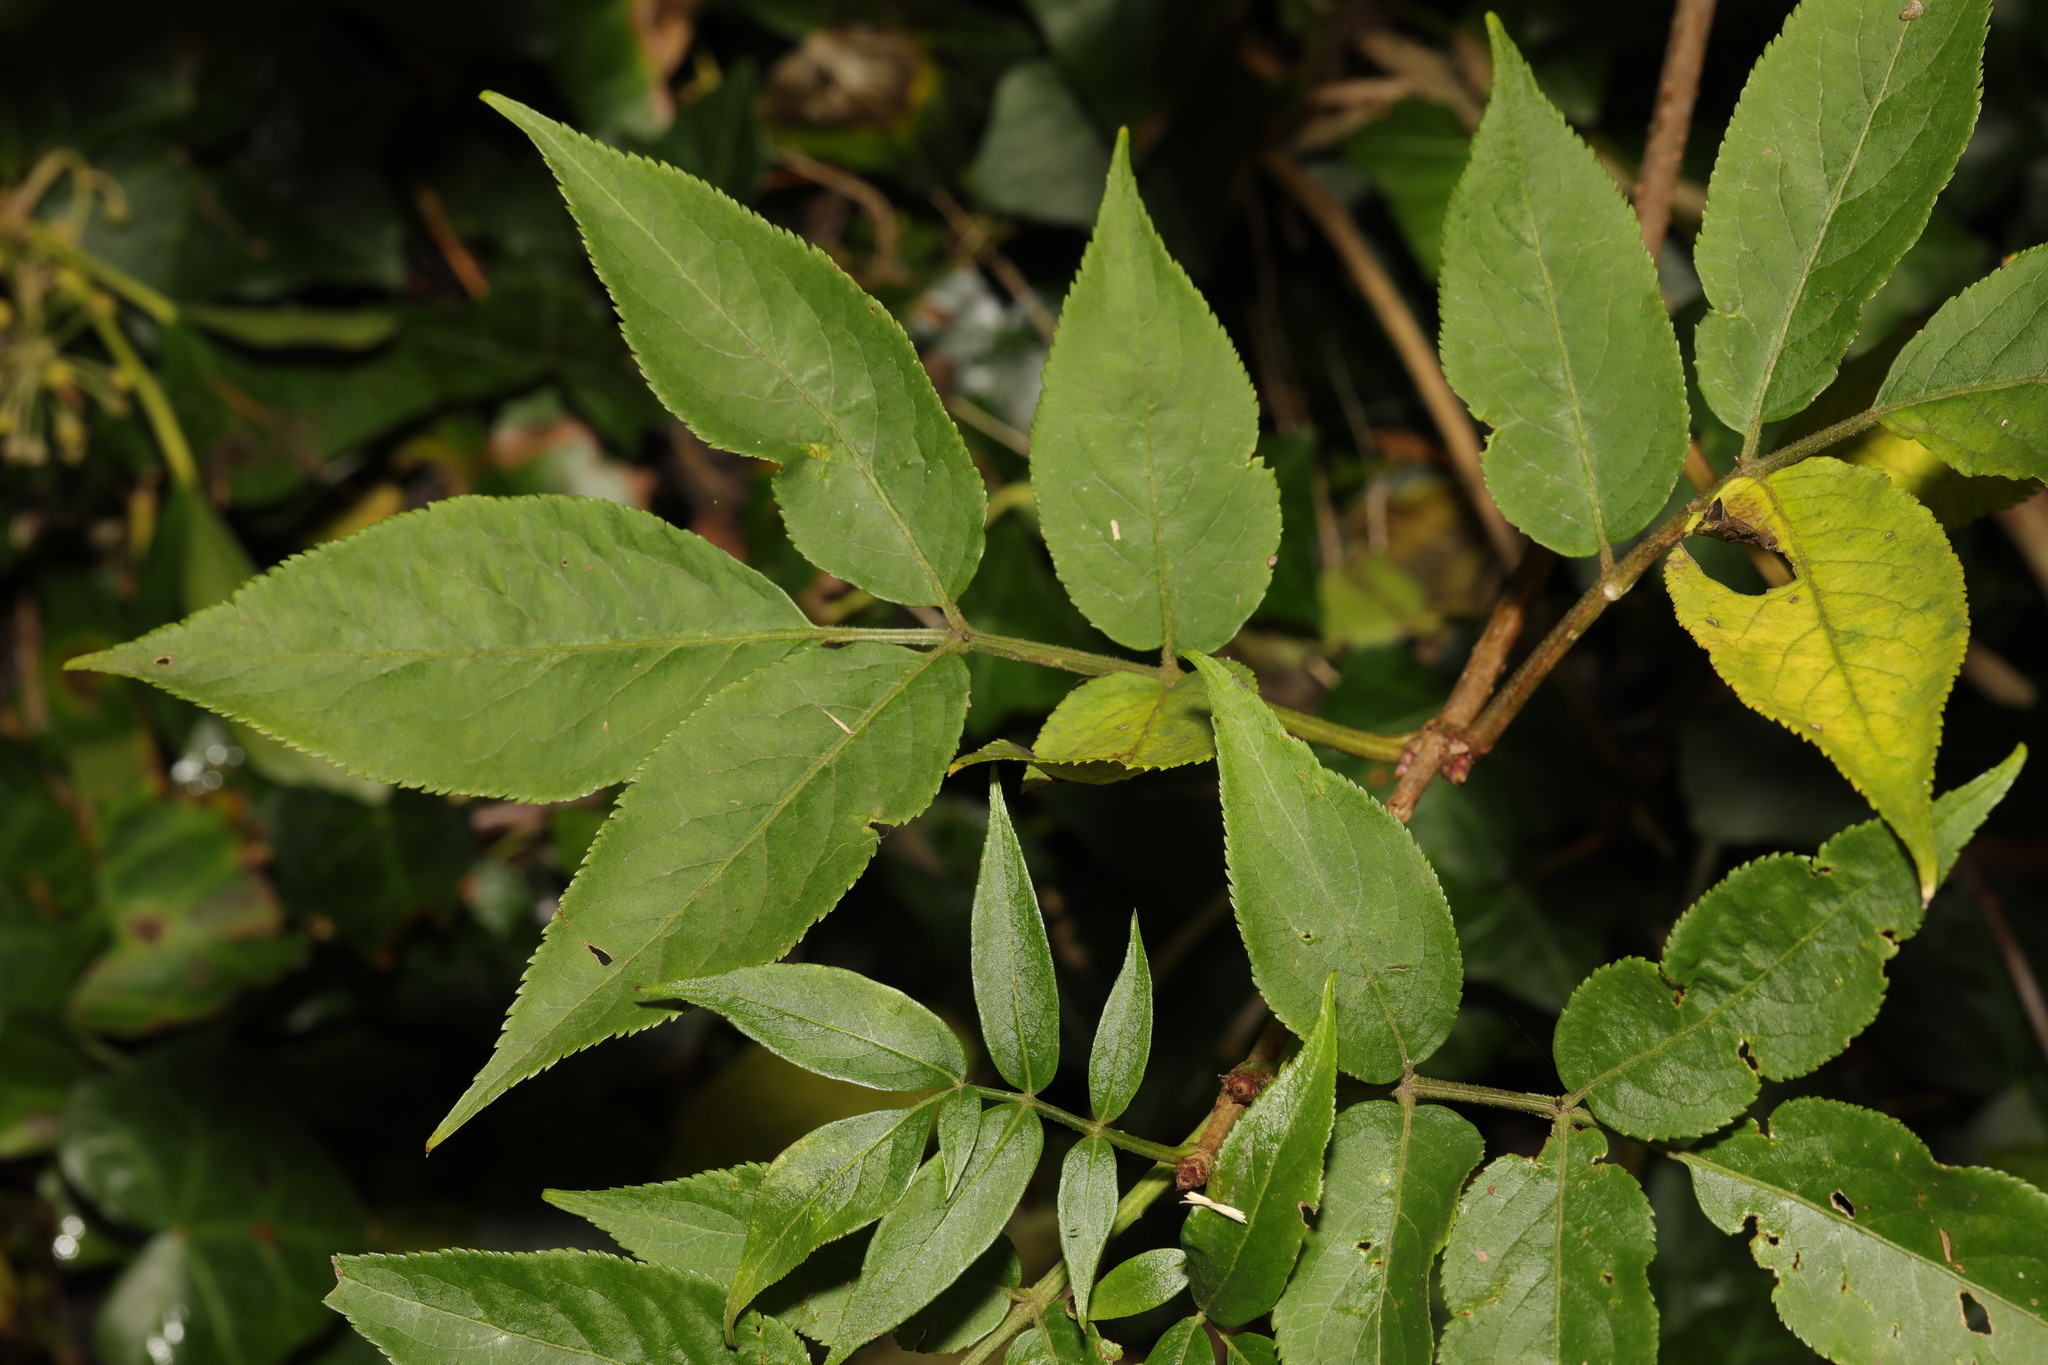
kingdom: Plantae
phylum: Tracheophyta
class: Magnoliopsida
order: Dipsacales
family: Viburnaceae
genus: Sambucus
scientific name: Sambucus nigra
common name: Elder
